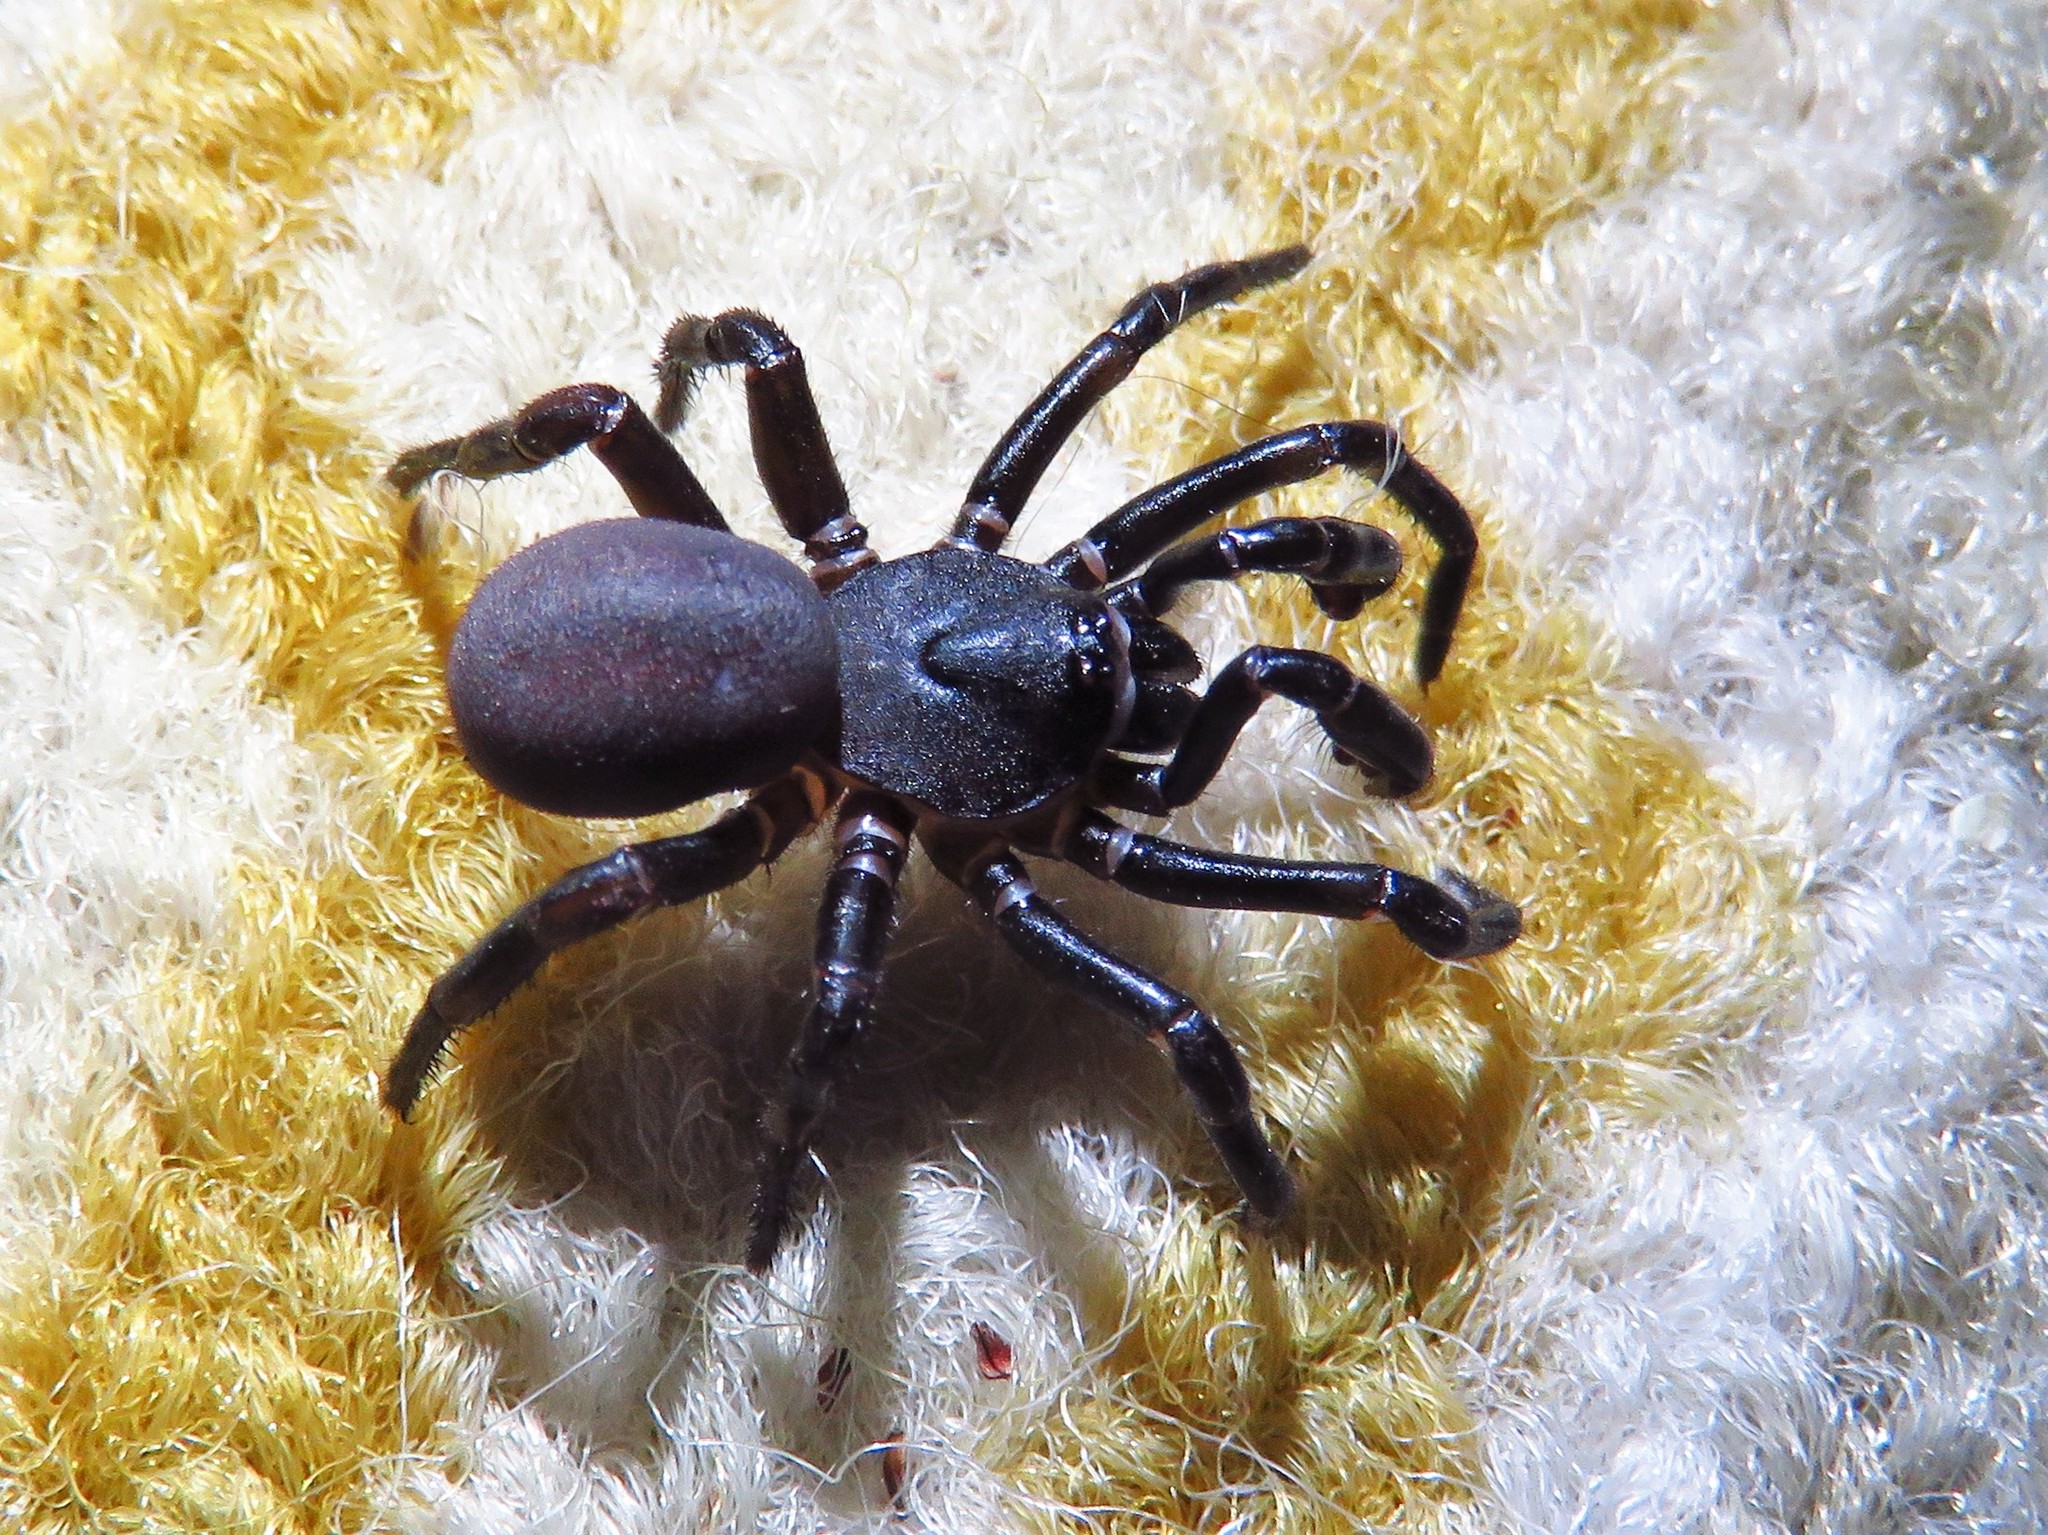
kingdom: Animalia
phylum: Arthropoda
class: Arachnida
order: Araneae
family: Halonoproctidae
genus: Ummidia
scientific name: Ummidia audouini
